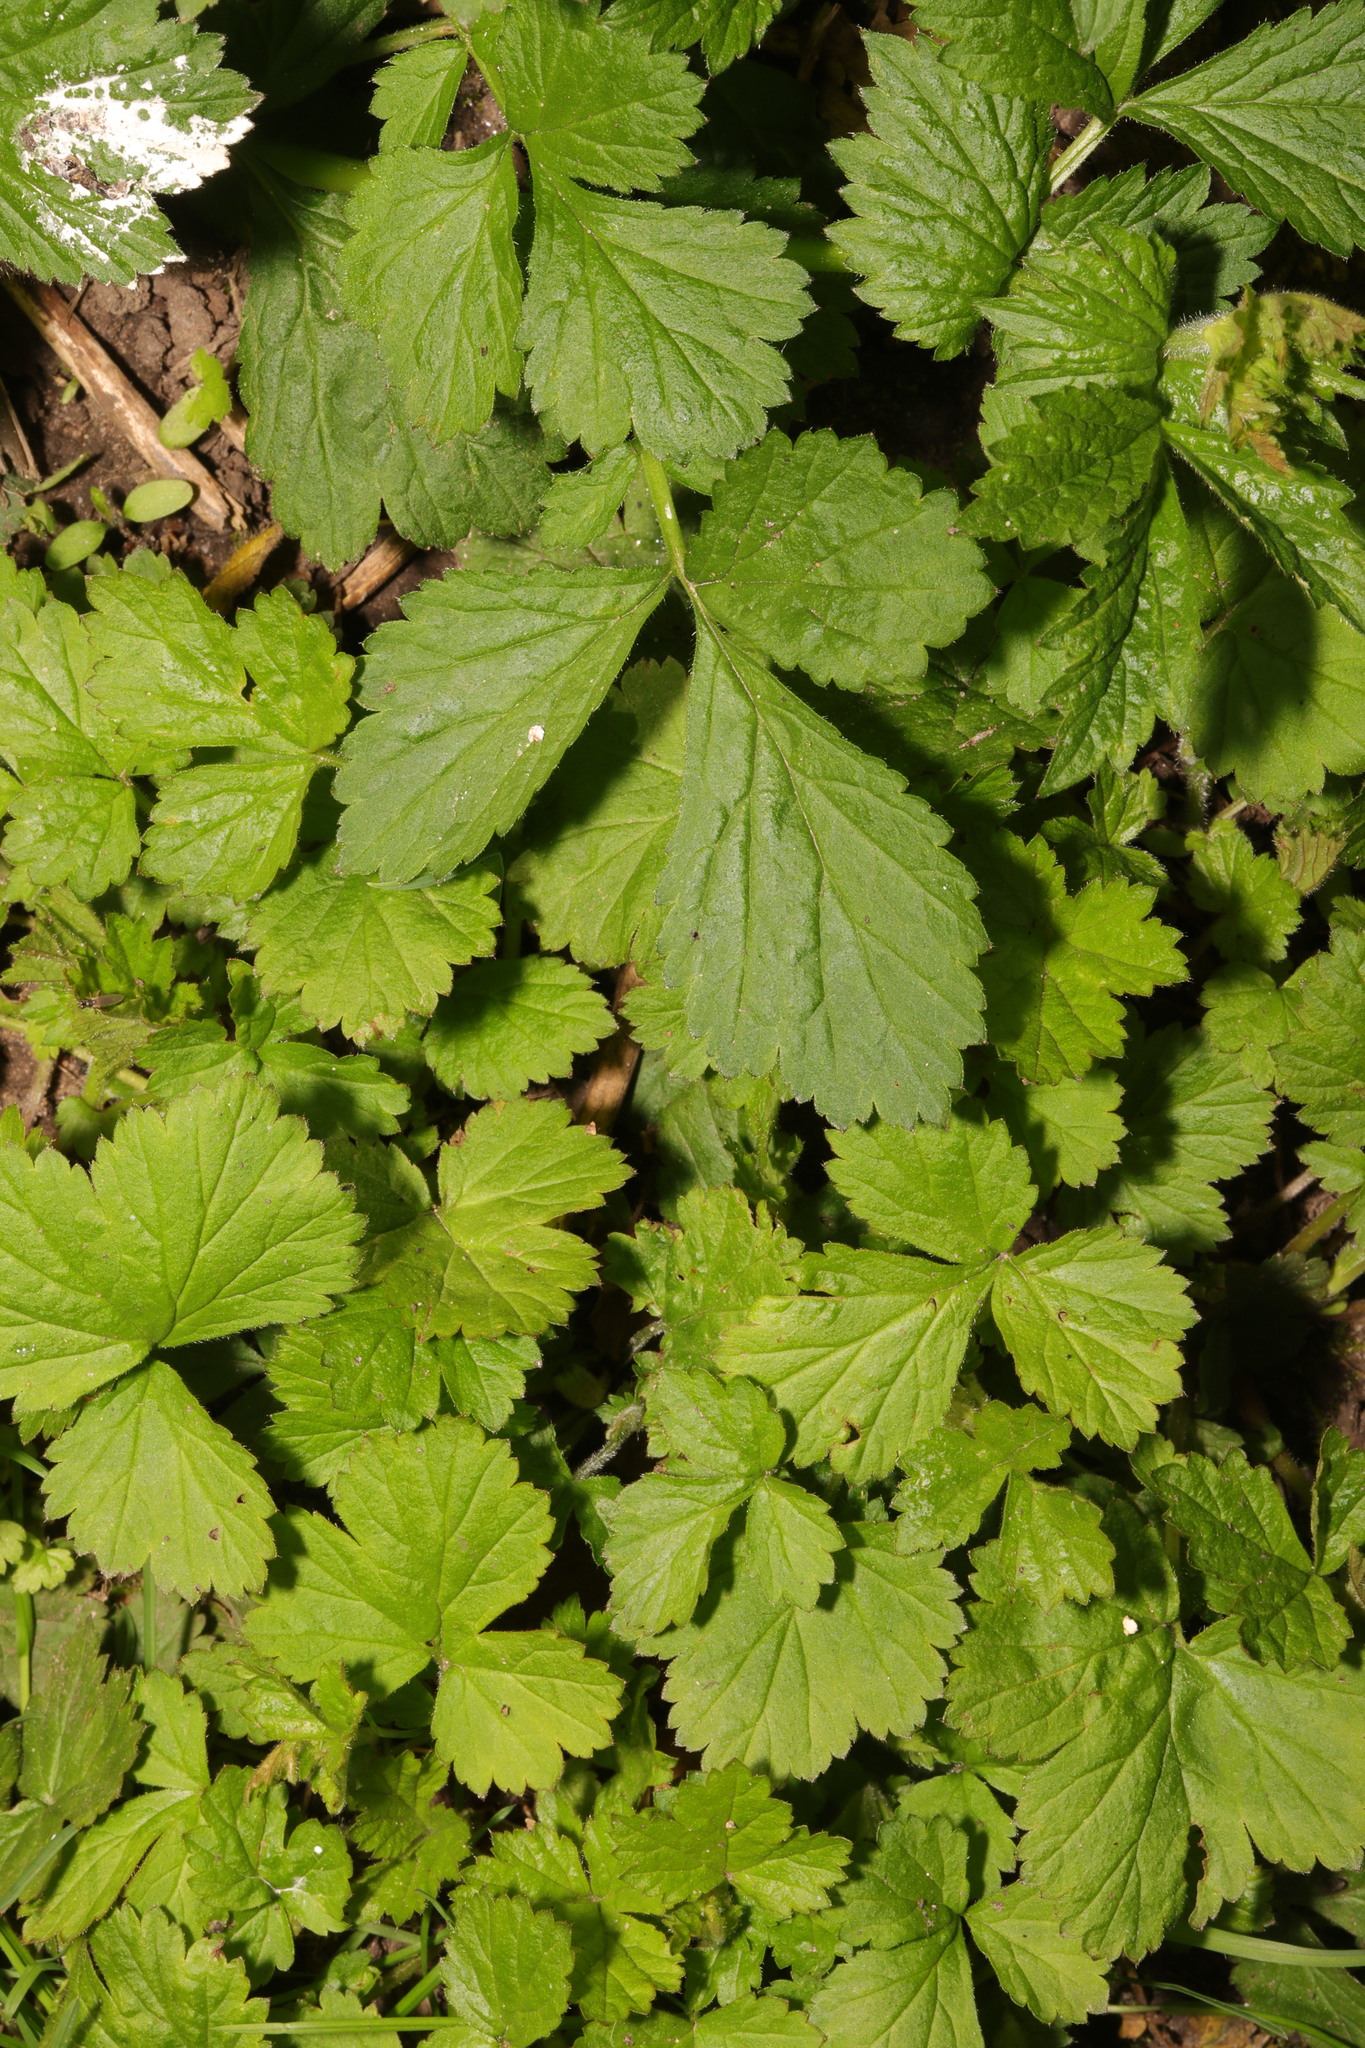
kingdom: Plantae
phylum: Tracheophyta
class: Magnoliopsida
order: Rosales
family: Rosaceae
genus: Geum
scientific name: Geum urbanum
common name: Wood avens
